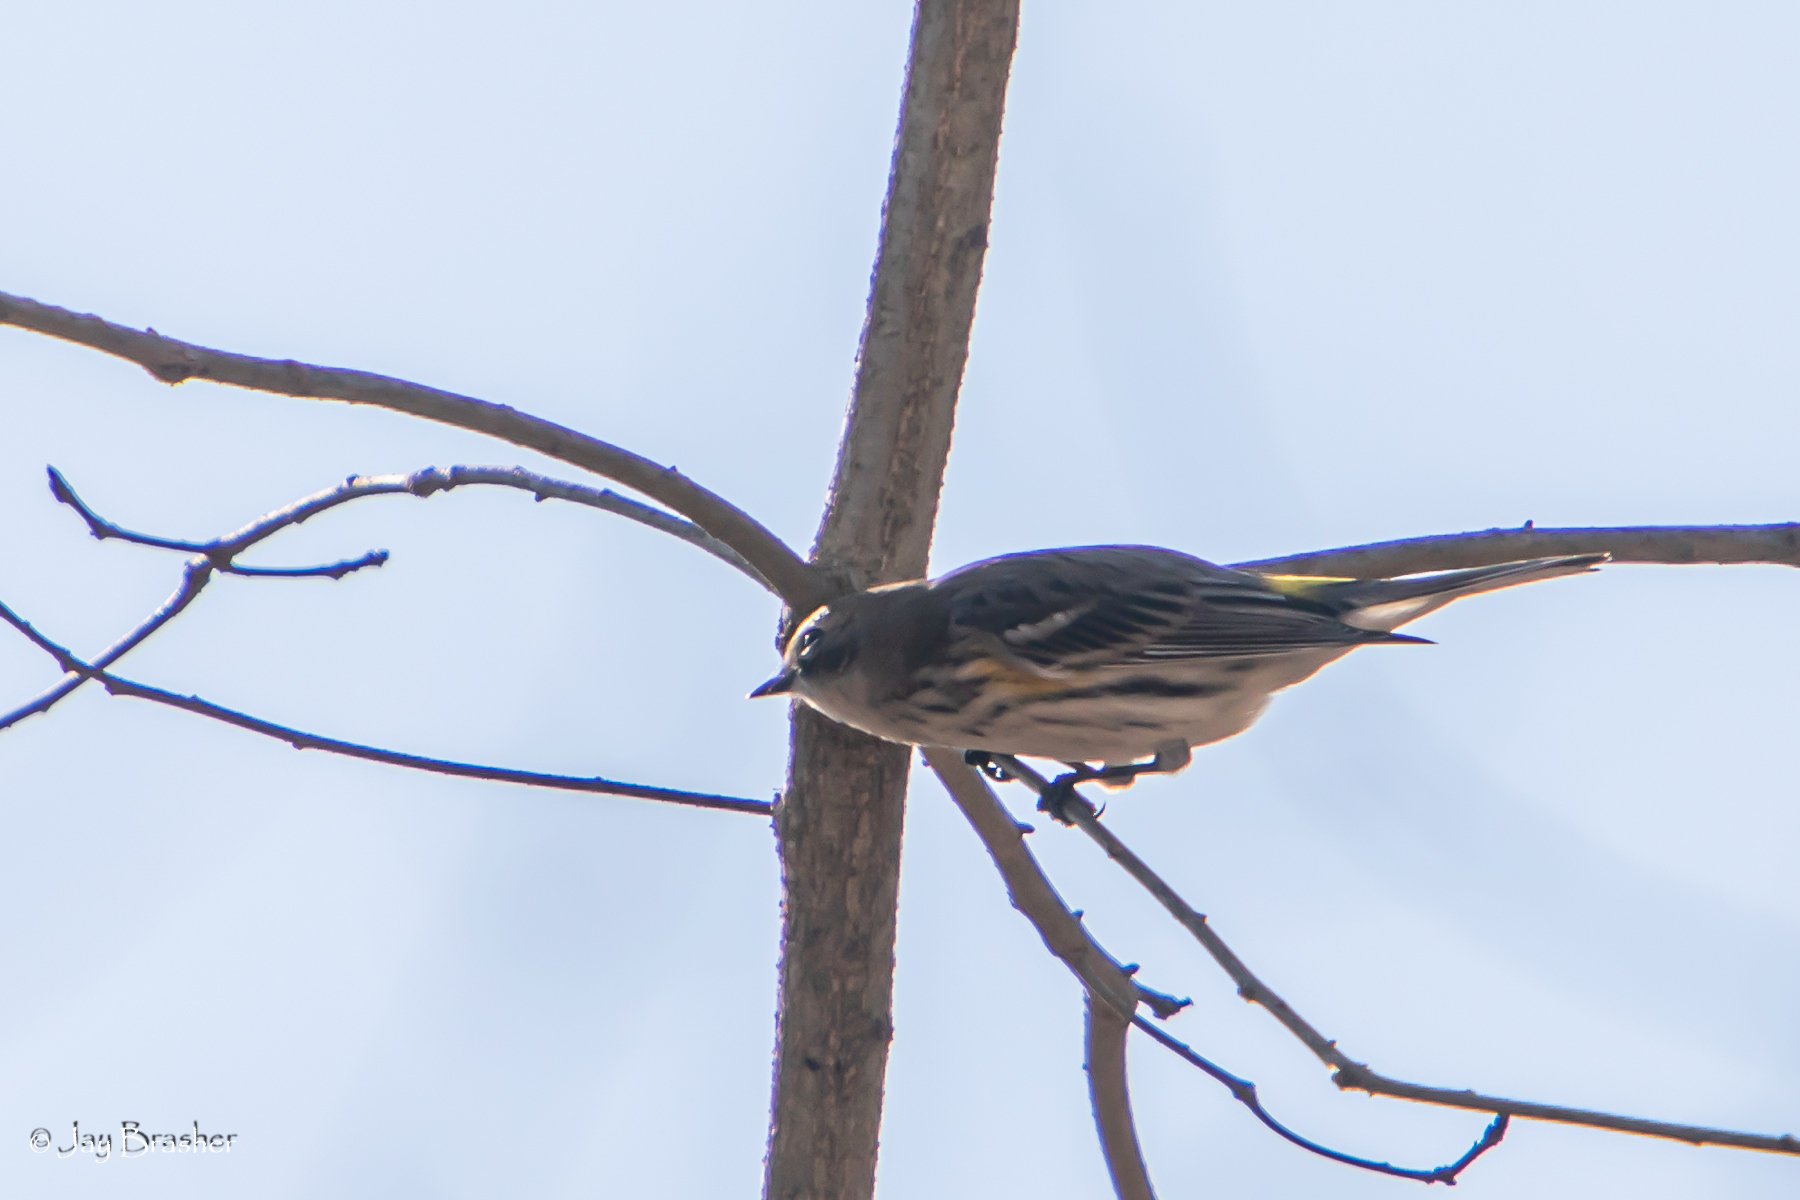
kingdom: Animalia
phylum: Chordata
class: Aves
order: Passeriformes
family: Parulidae
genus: Setophaga
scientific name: Setophaga coronata
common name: Myrtle warbler
